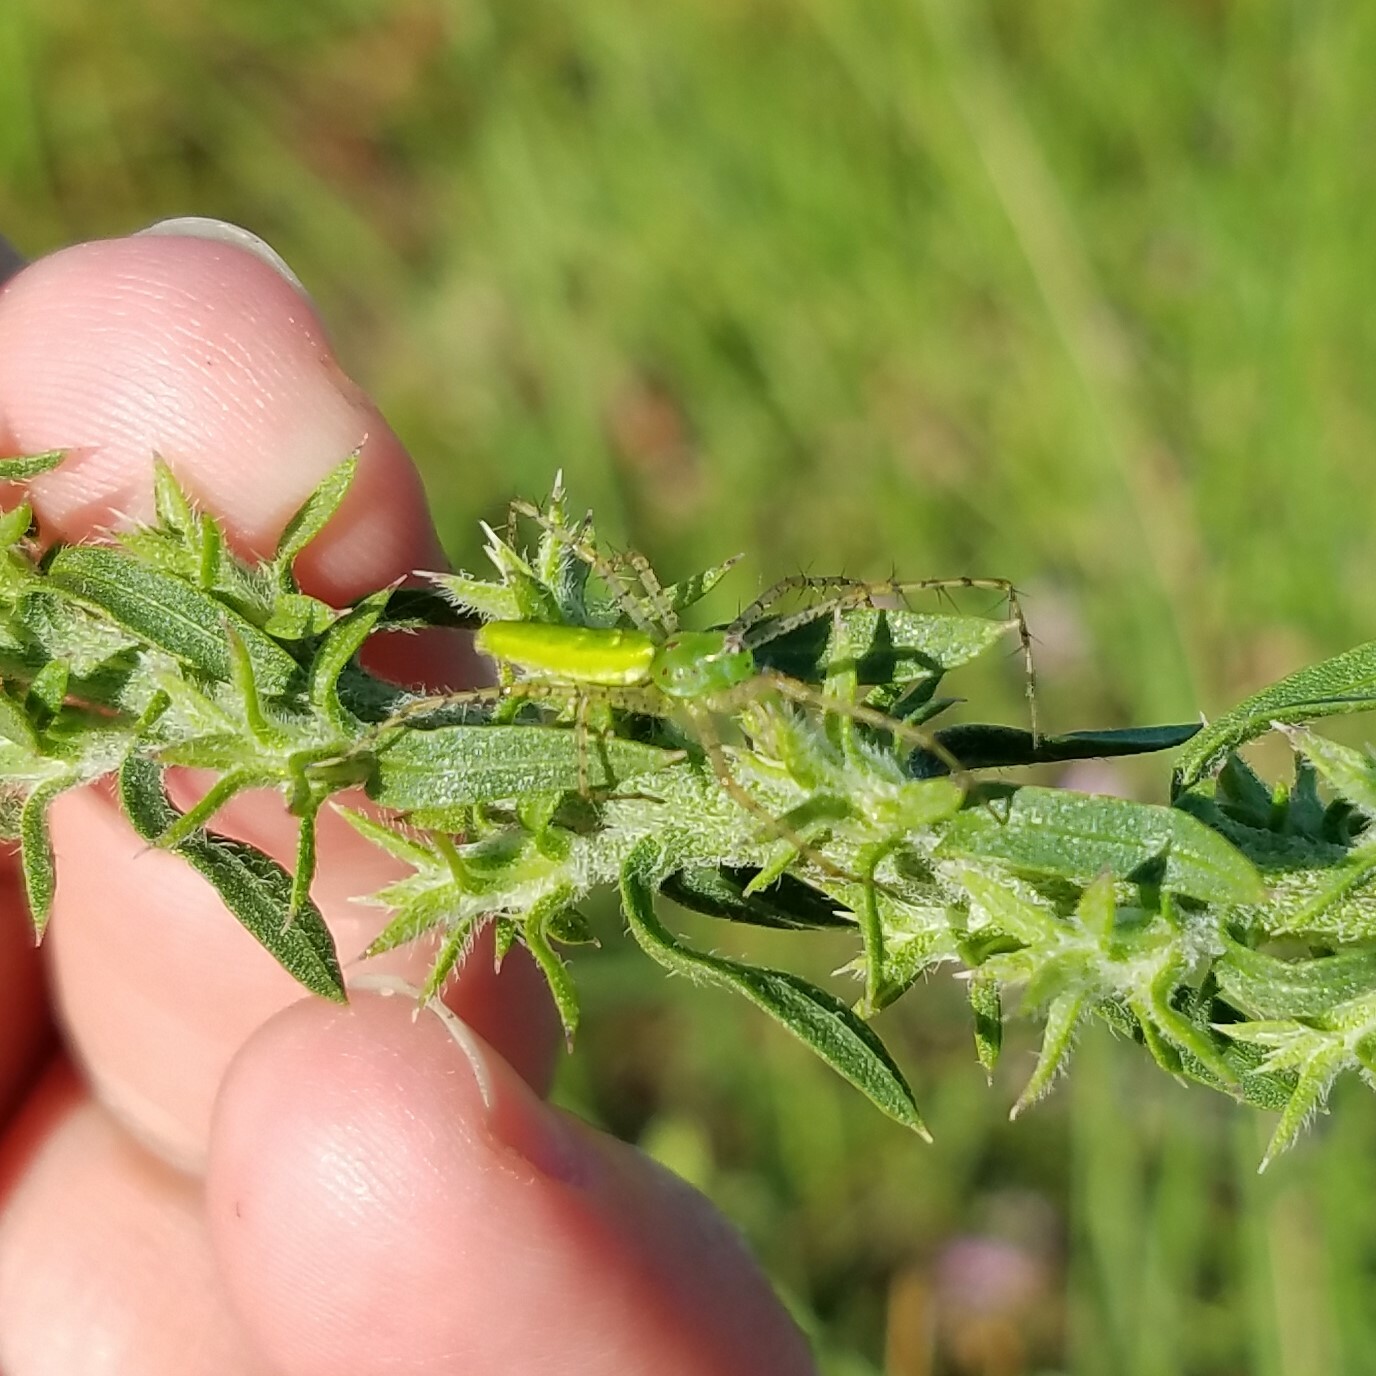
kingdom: Animalia
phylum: Arthropoda
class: Arachnida
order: Araneae
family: Oxyopidae
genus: Peucetia
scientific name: Peucetia viridans
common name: Lynx spiders
